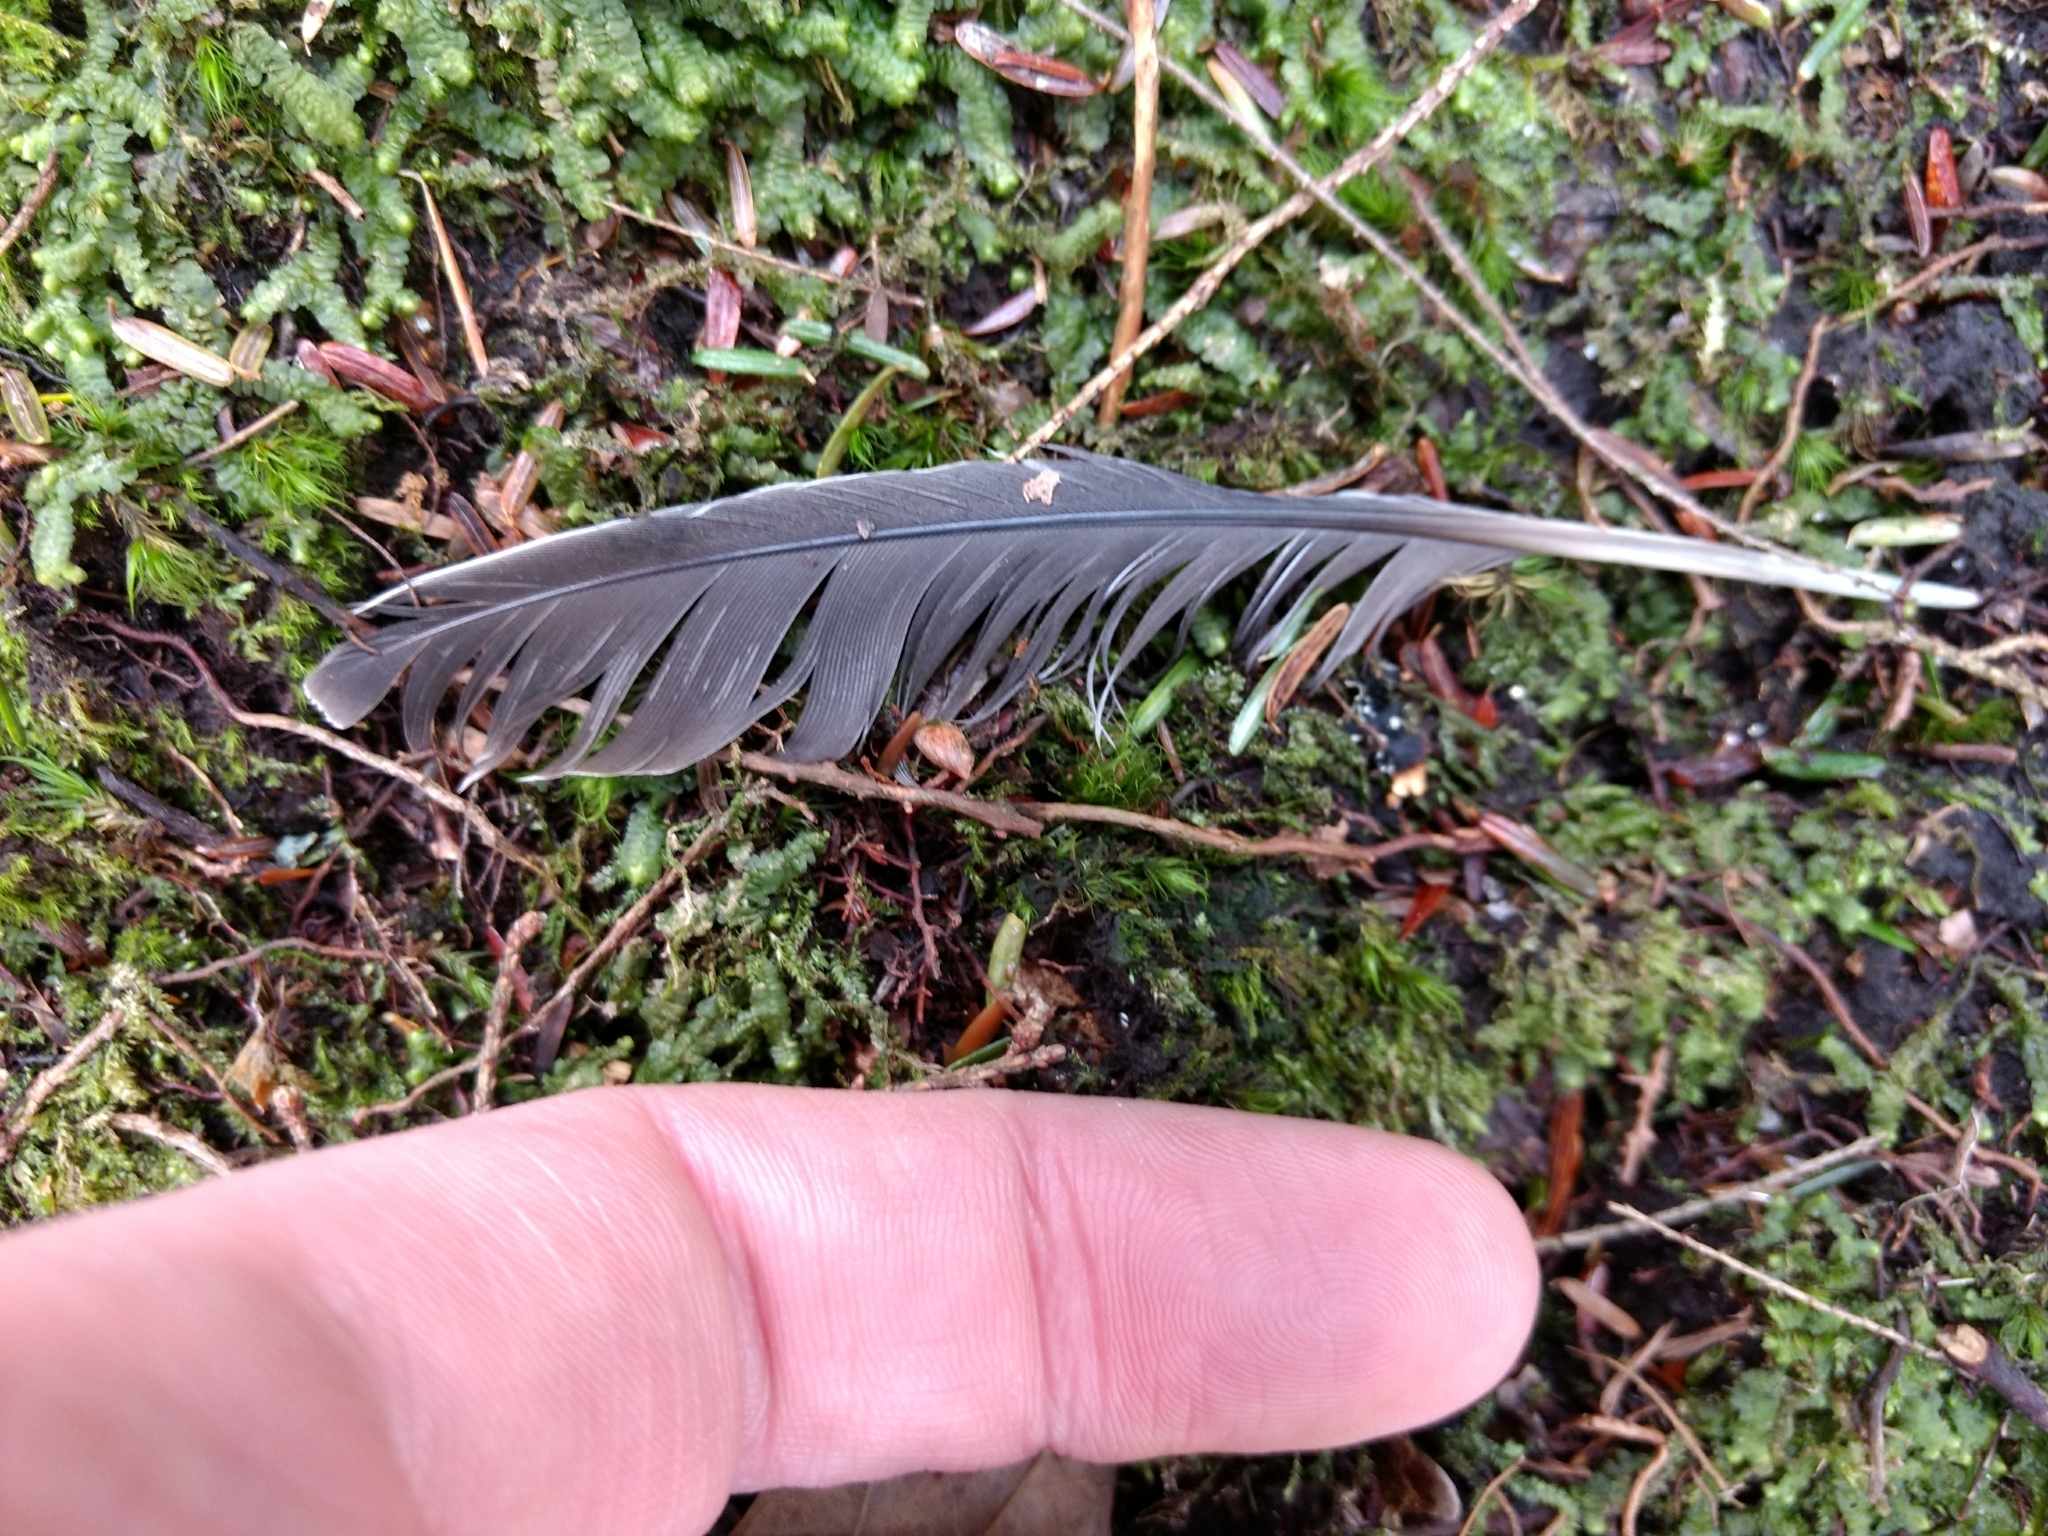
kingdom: Animalia
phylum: Chordata
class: Aves
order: Columbiformes
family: Columbidae
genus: Zenaida
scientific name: Zenaida macroura
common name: Mourning dove
